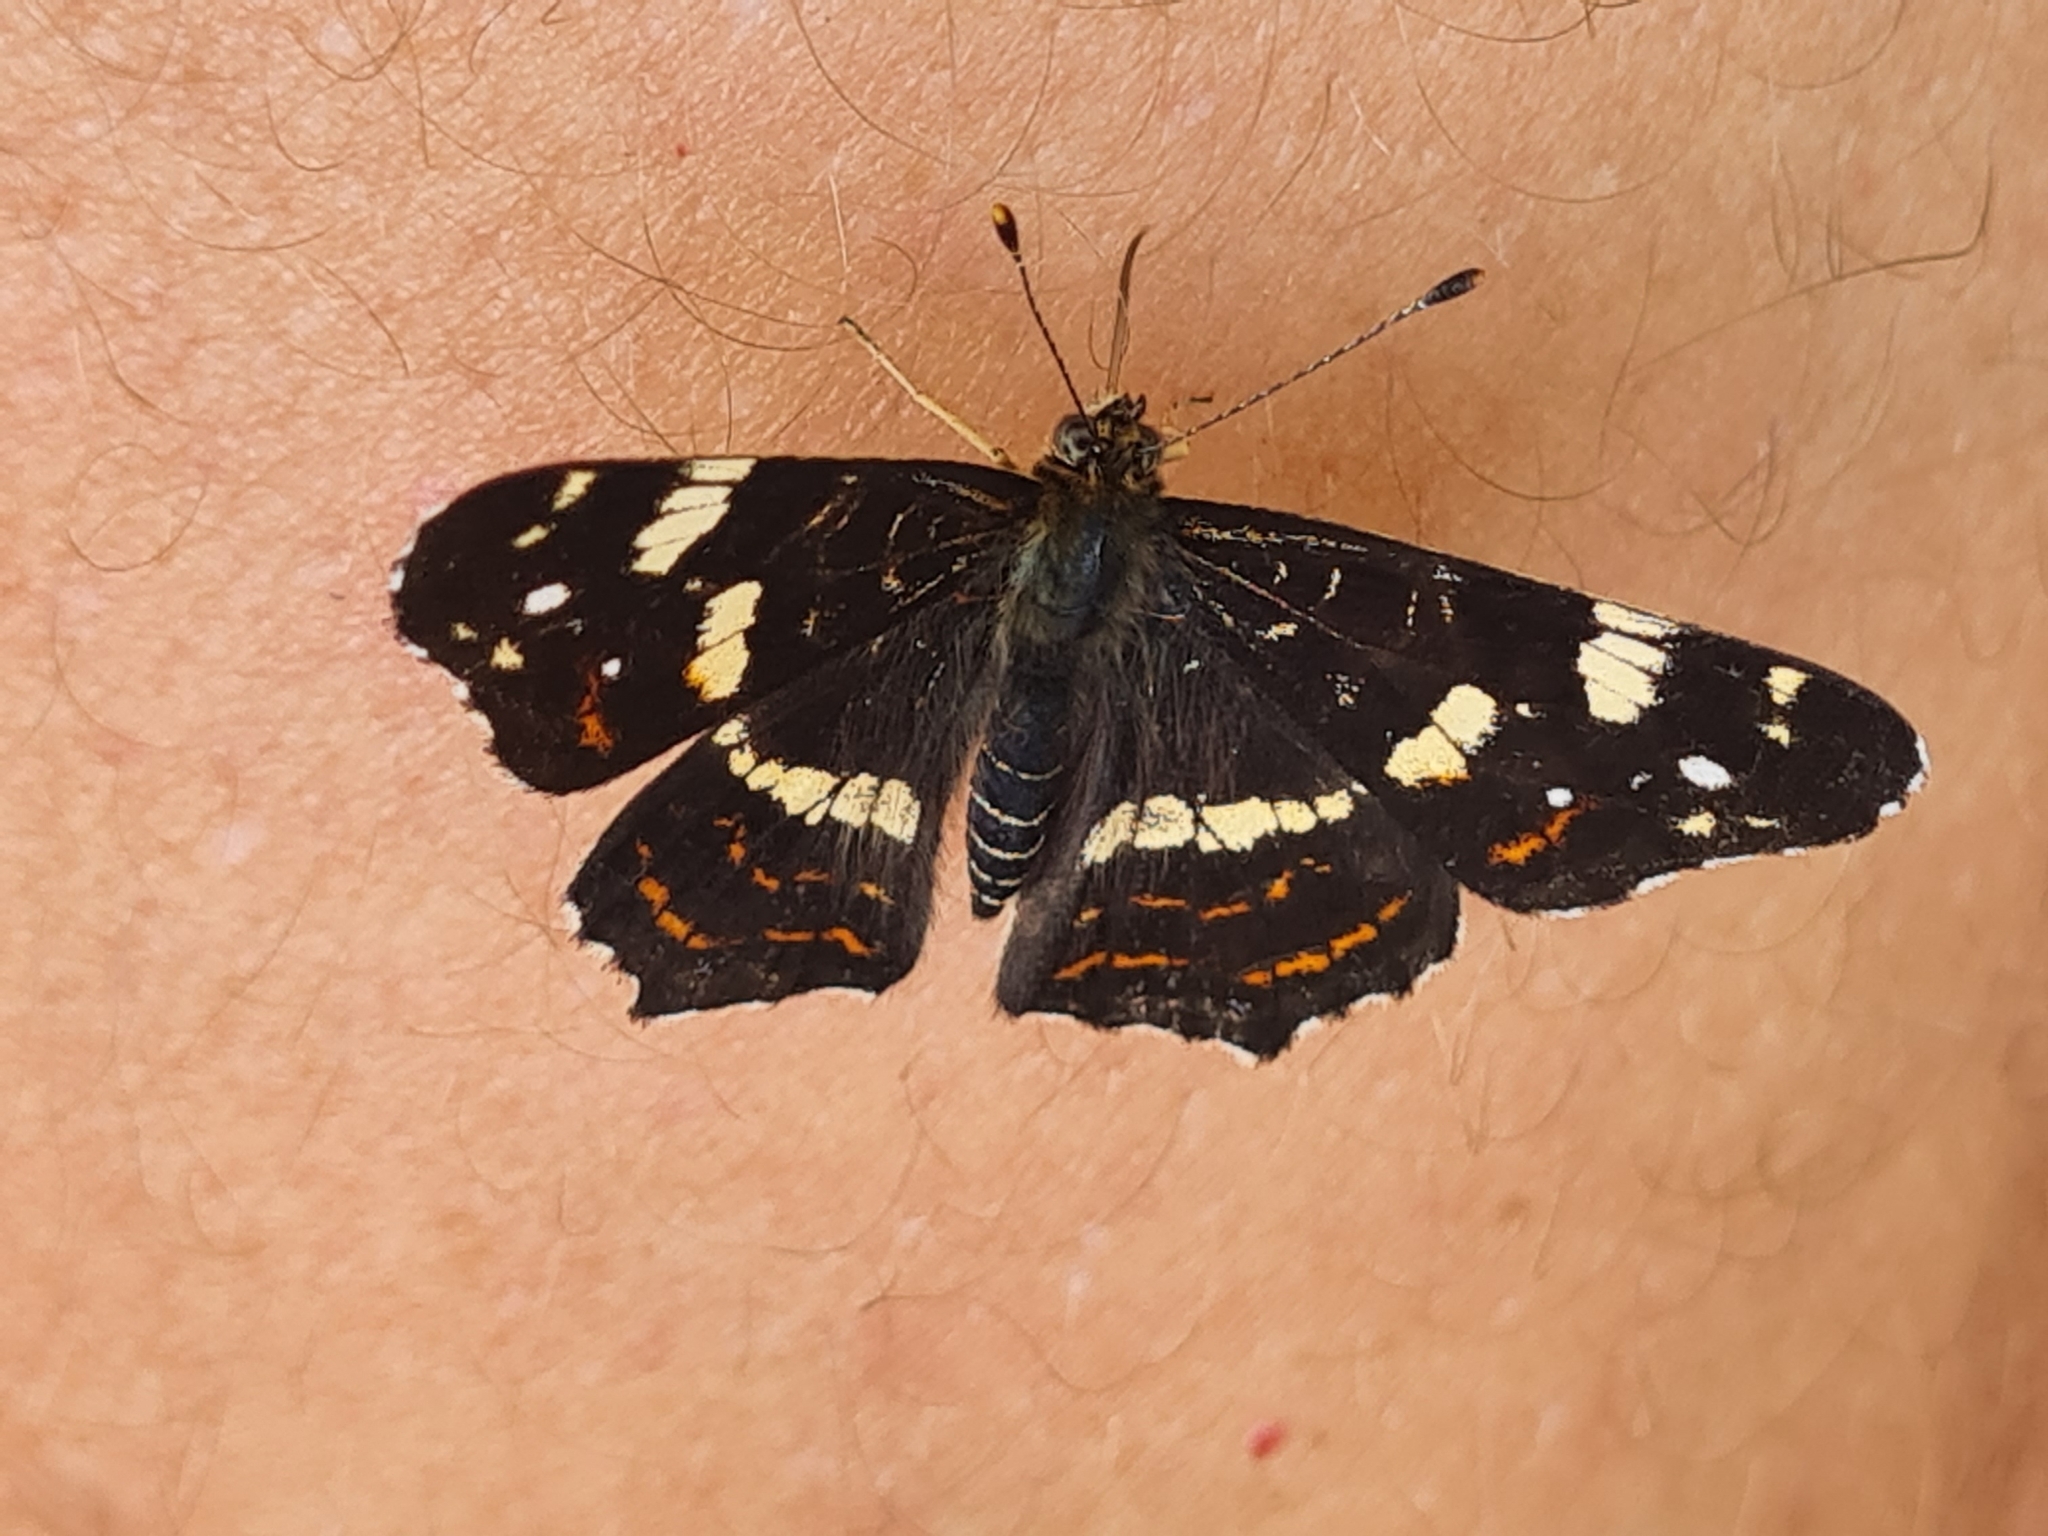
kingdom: Animalia
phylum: Arthropoda
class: Insecta
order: Lepidoptera
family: Nymphalidae
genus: Araschnia
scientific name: Araschnia levana
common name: Map butterfly
